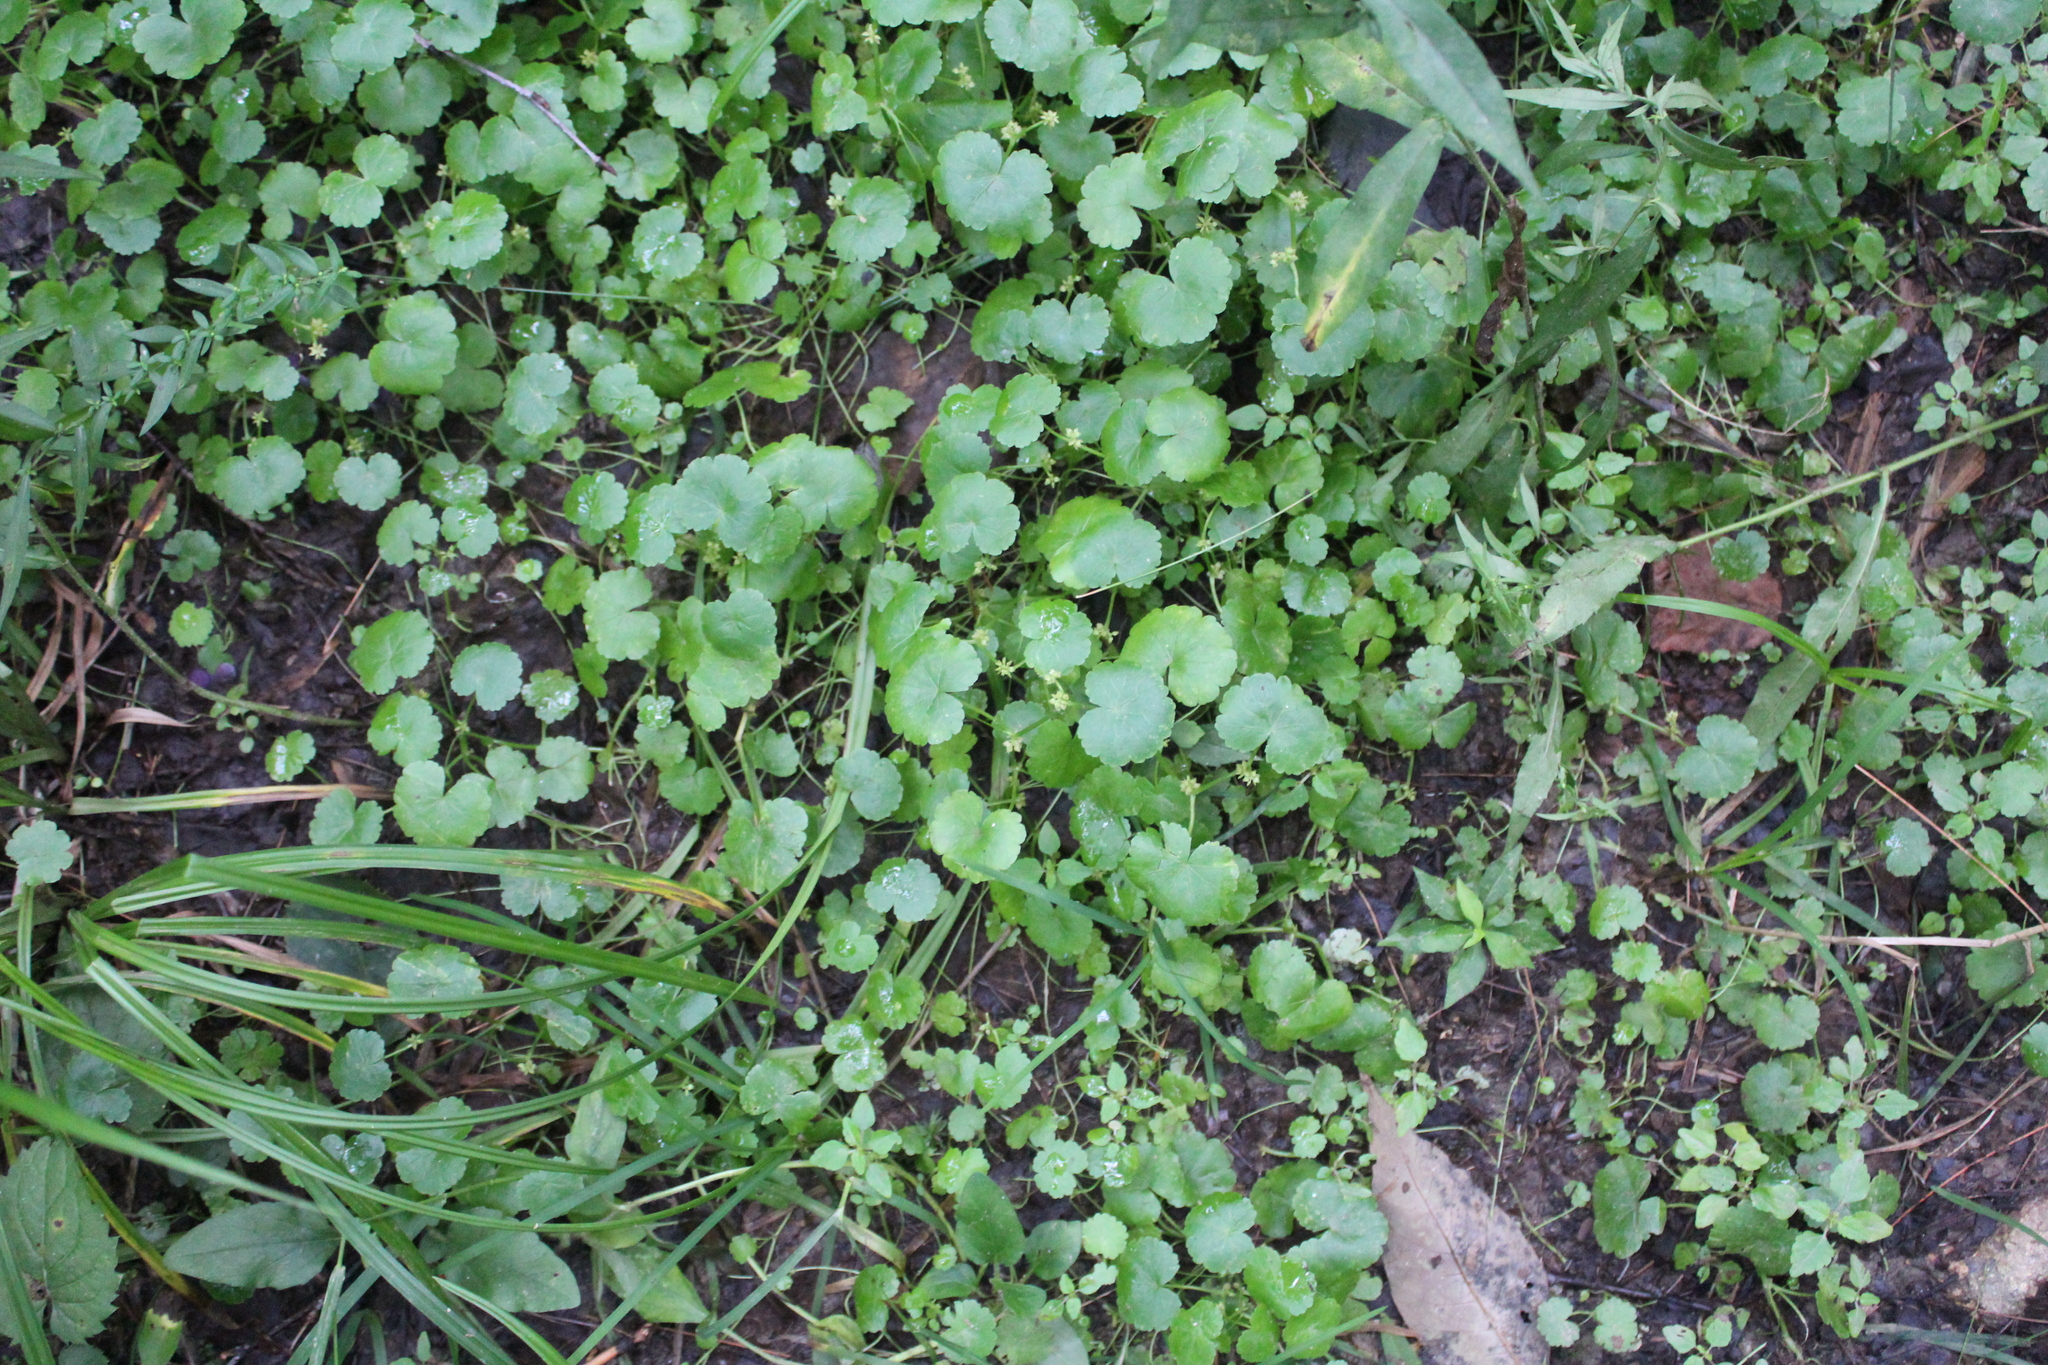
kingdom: Plantae
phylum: Tracheophyta
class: Magnoliopsida
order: Apiales
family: Araliaceae
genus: Hydrocotyle
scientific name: Hydrocotyle americana
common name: American water-pennywort
